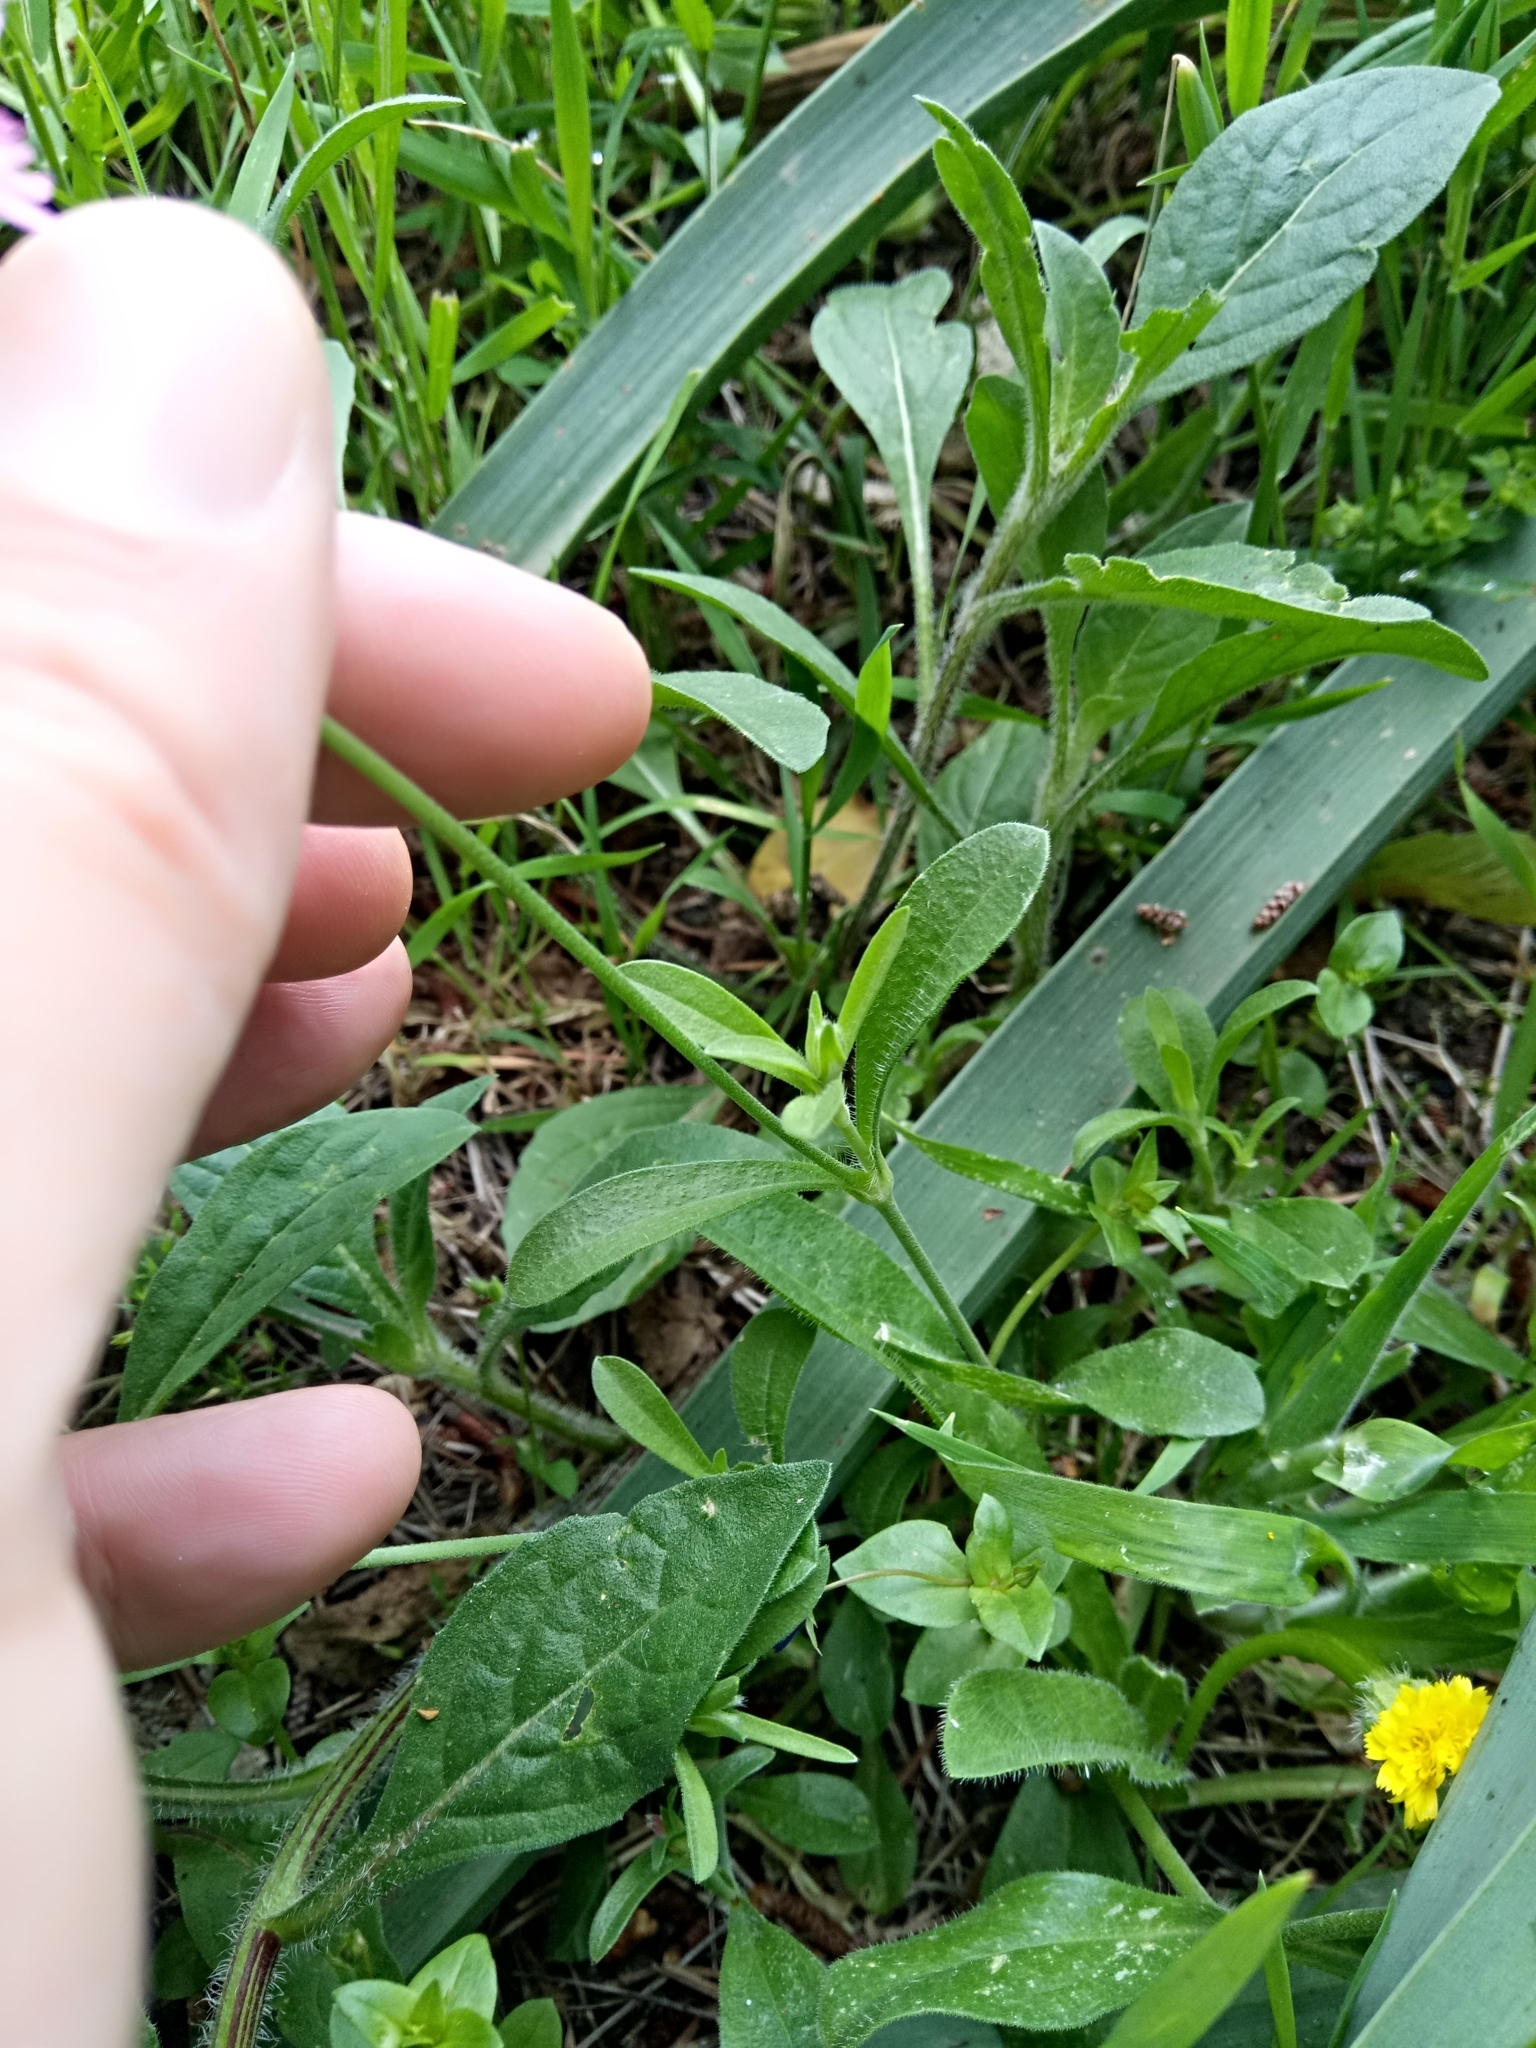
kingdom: Plantae
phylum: Tracheophyta
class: Magnoliopsida
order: Caryophyllales
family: Caryophyllaceae
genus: Silene
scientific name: Silene secundiflora
